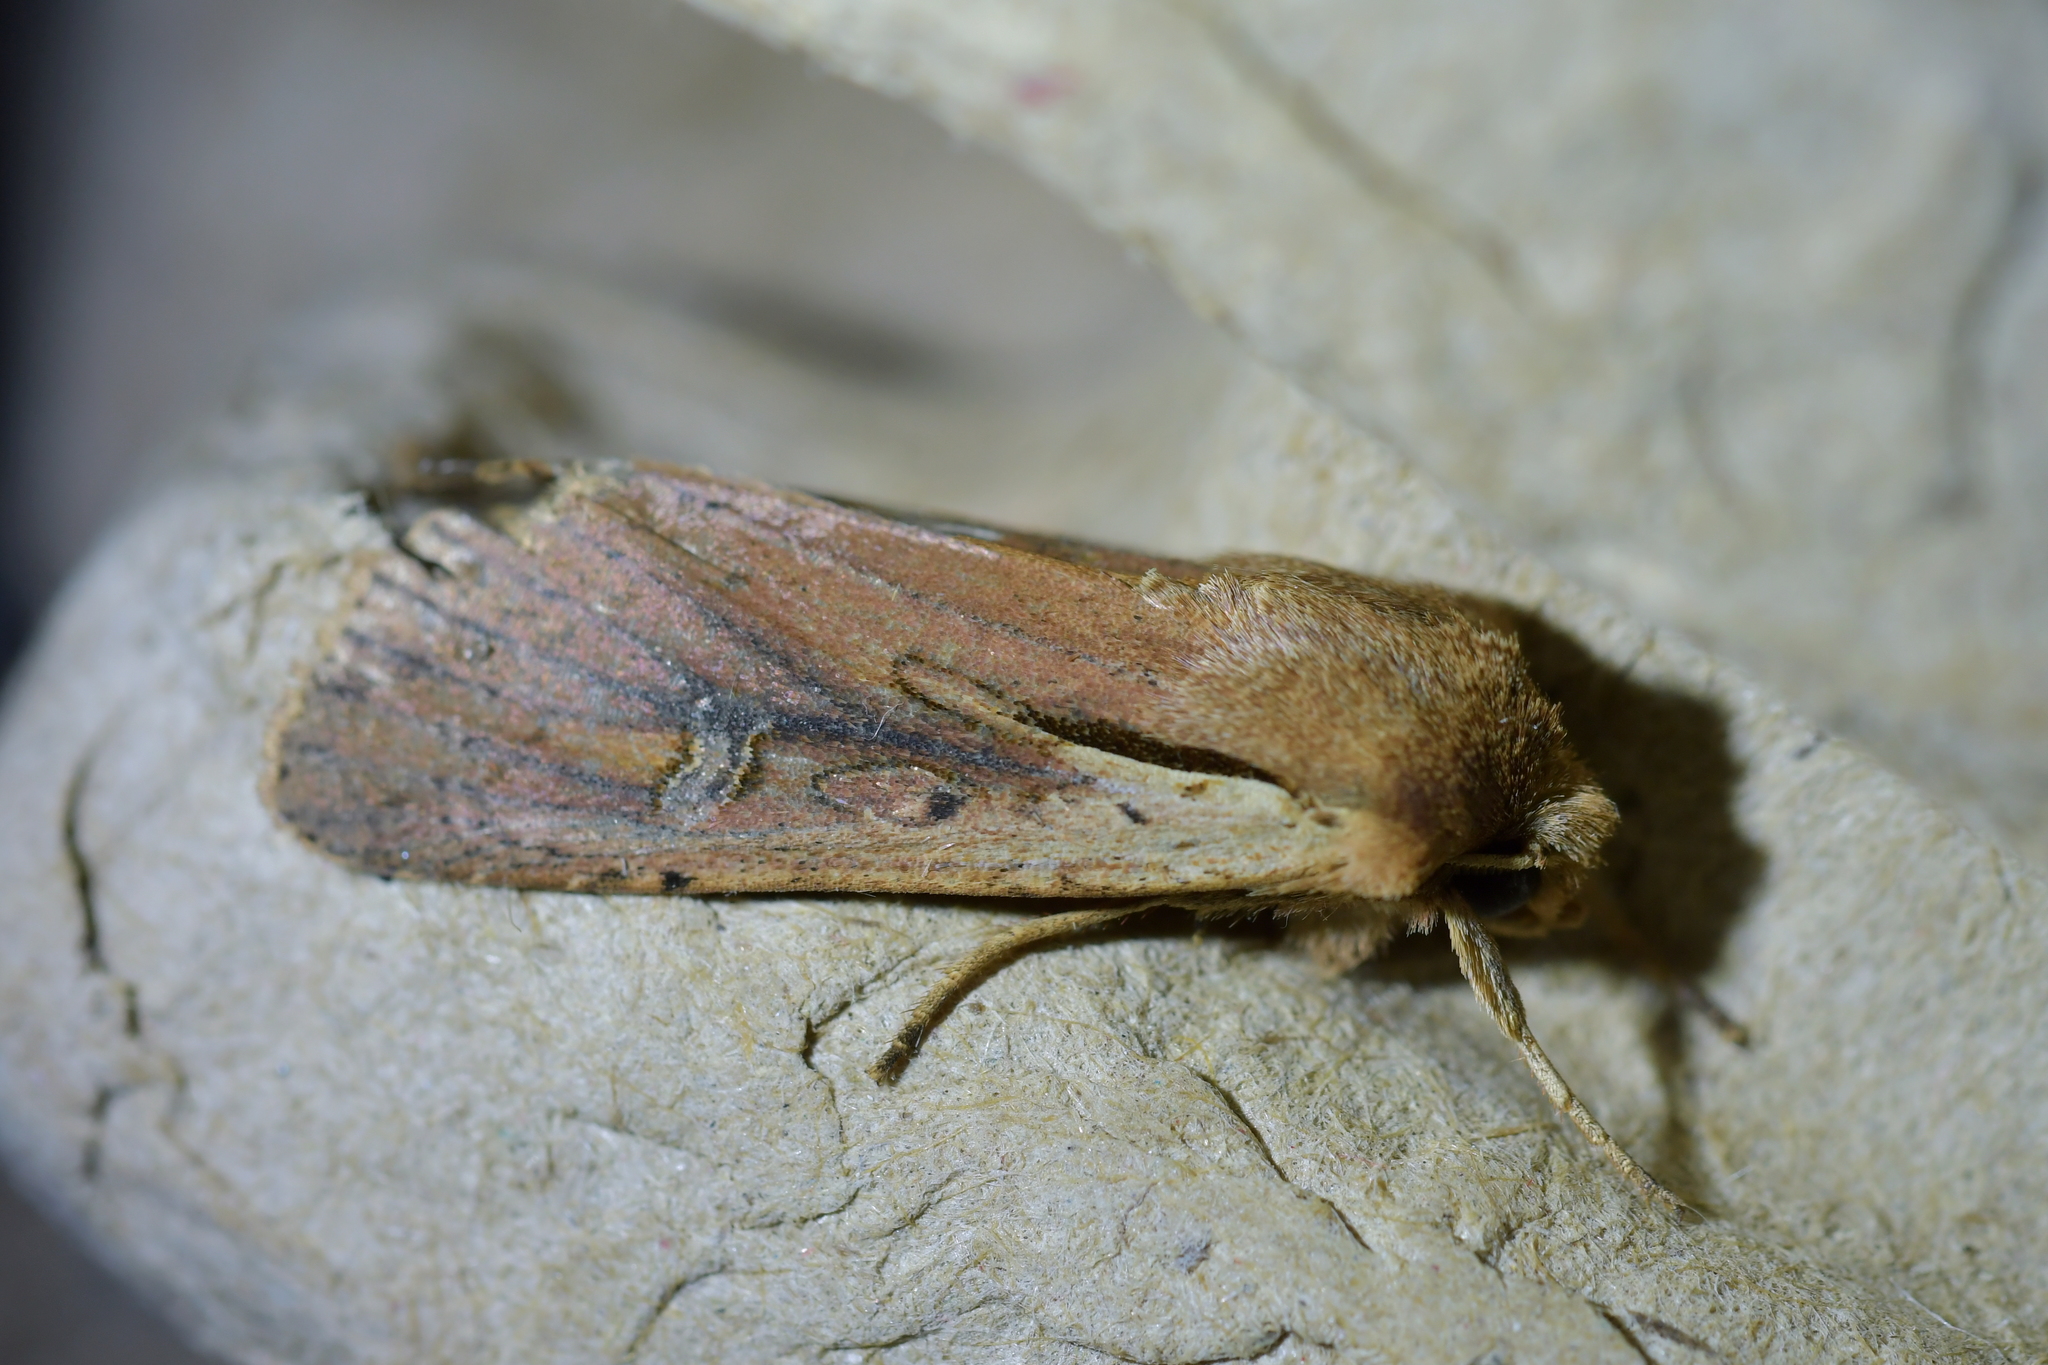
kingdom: Animalia
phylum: Arthropoda
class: Insecta
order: Lepidoptera
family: Noctuidae
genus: Ichneutica
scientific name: Ichneutica atristriga
